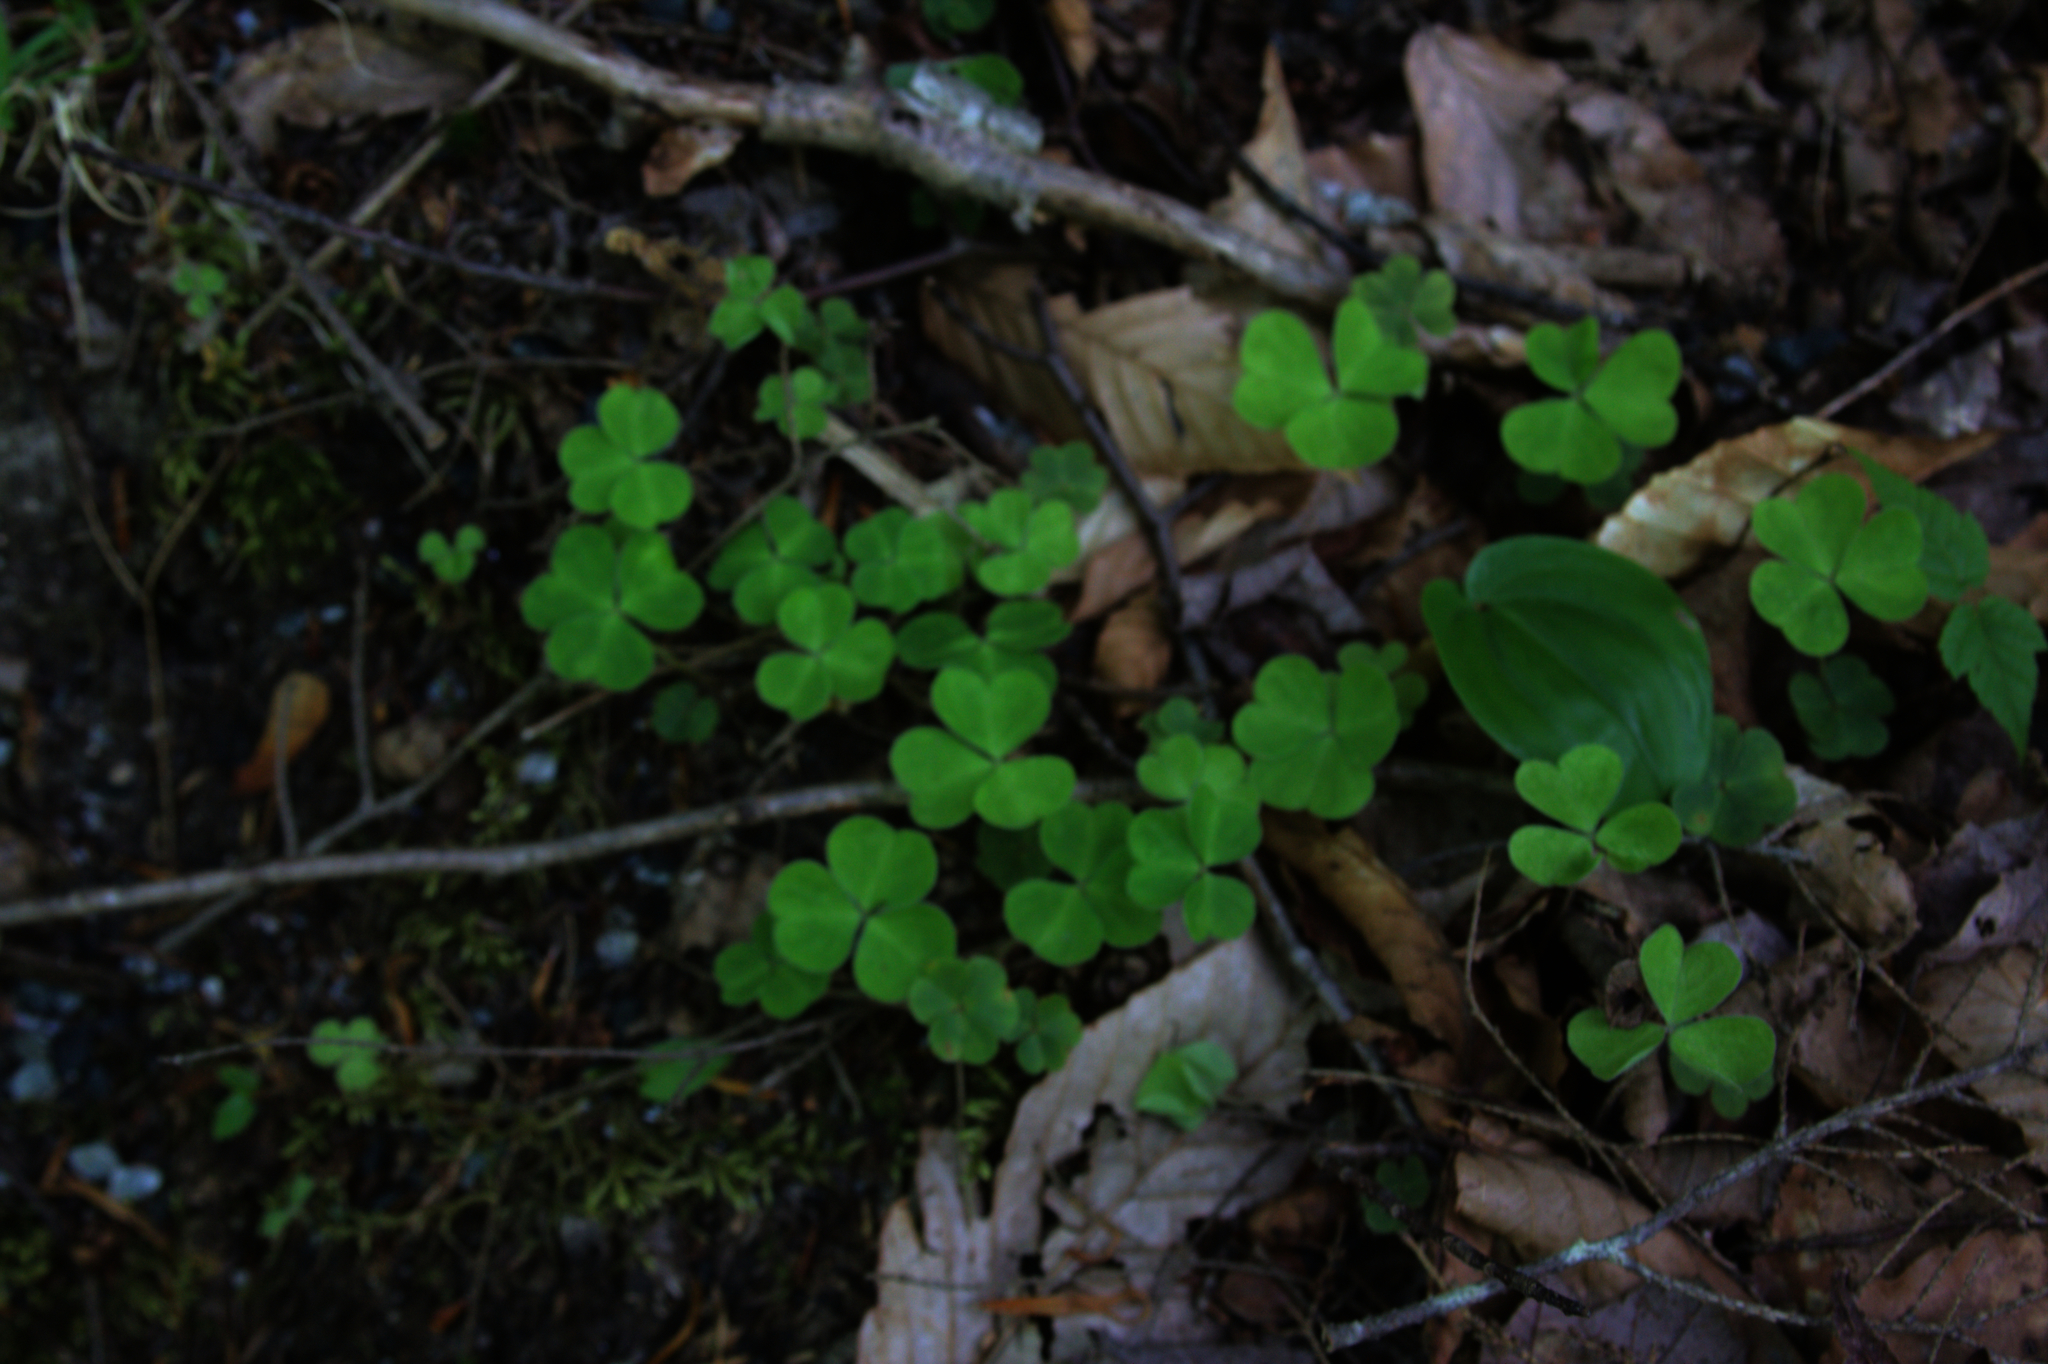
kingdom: Plantae
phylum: Tracheophyta
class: Liliopsida
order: Asparagales
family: Asparagaceae
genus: Maianthemum
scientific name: Maianthemum canadense
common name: False lily-of-the-valley
